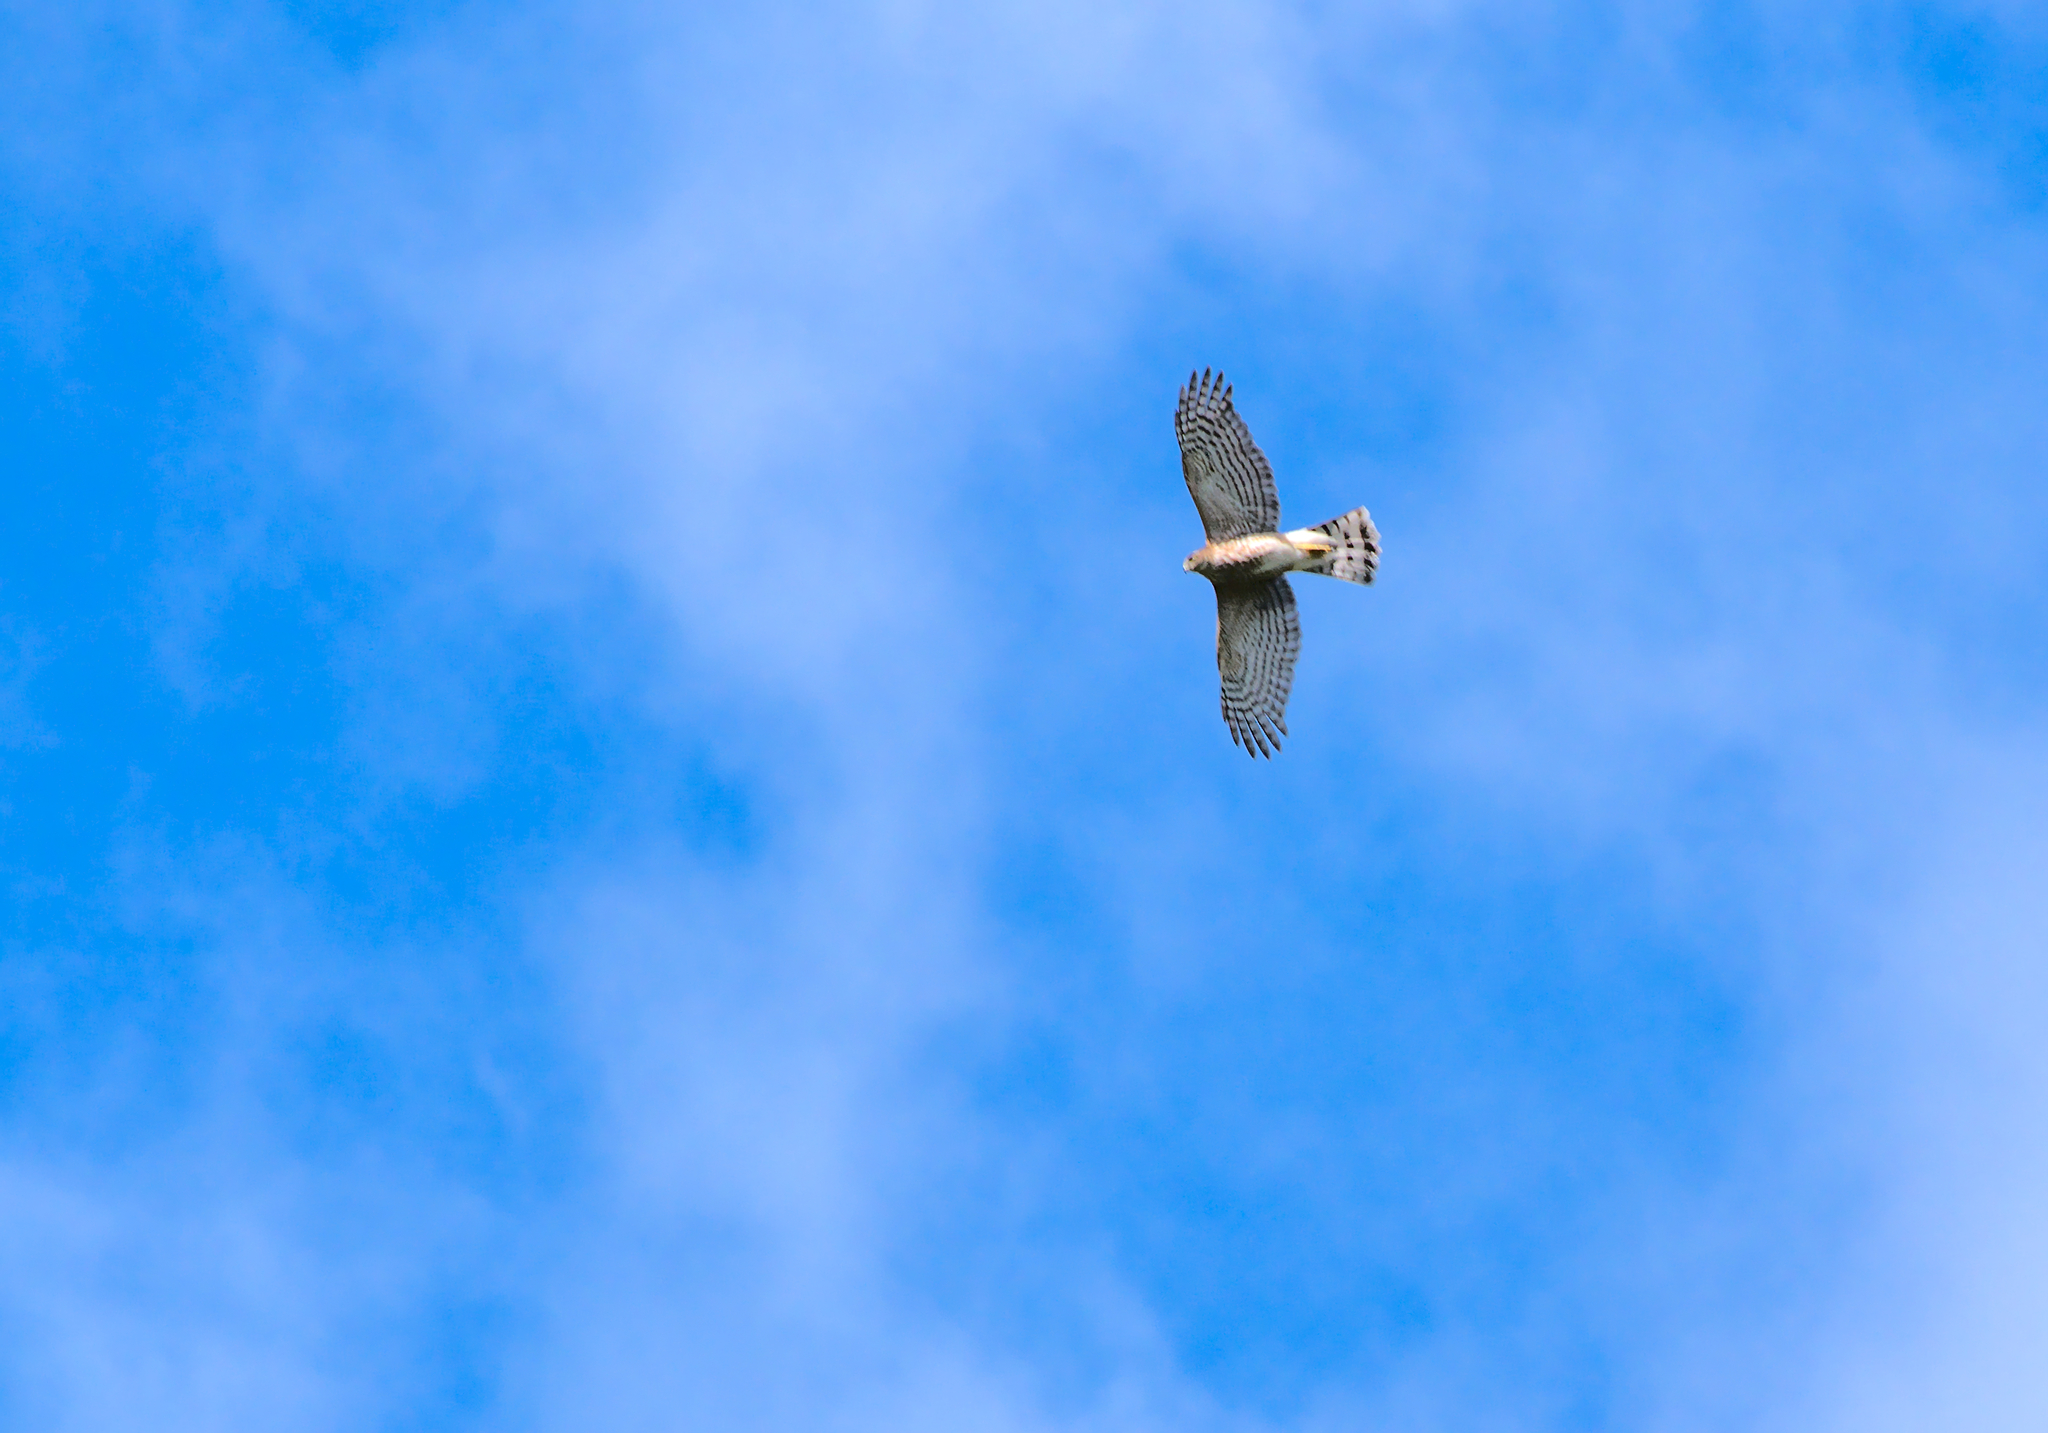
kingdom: Animalia
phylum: Chordata
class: Aves
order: Accipitriformes
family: Accipitridae
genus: Accipiter
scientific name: Accipiter gentilis
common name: Northern goshawk
